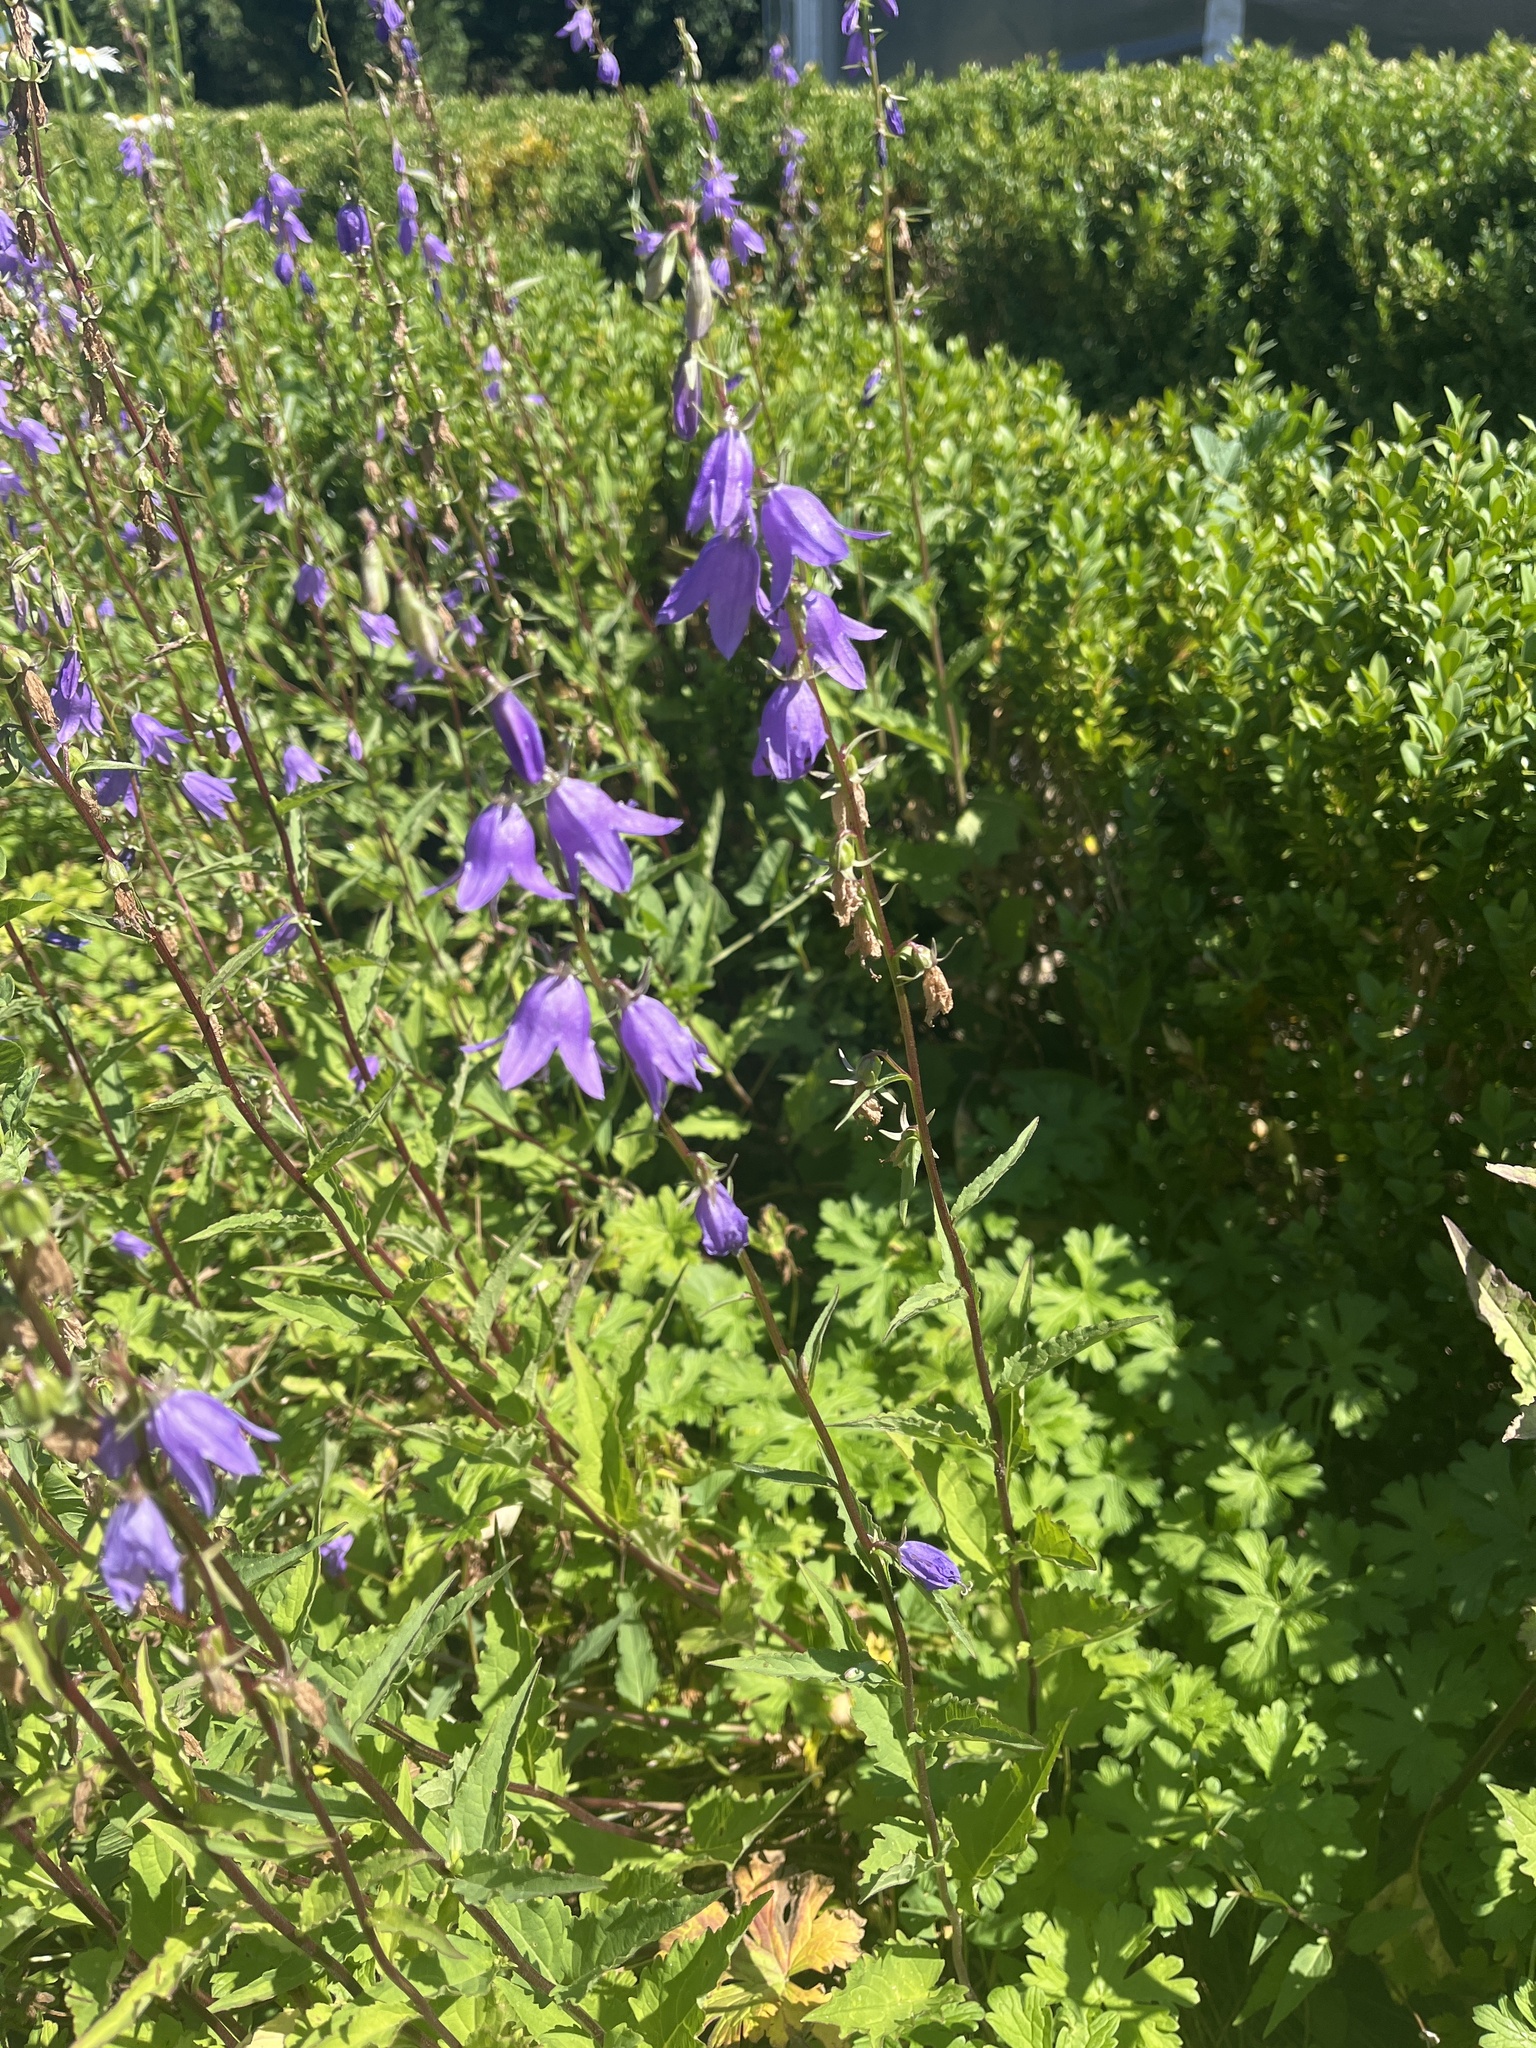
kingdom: Plantae
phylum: Tracheophyta
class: Magnoliopsida
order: Asterales
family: Campanulaceae
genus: Campanula
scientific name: Campanula rapunculoides
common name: Creeping bellflower
